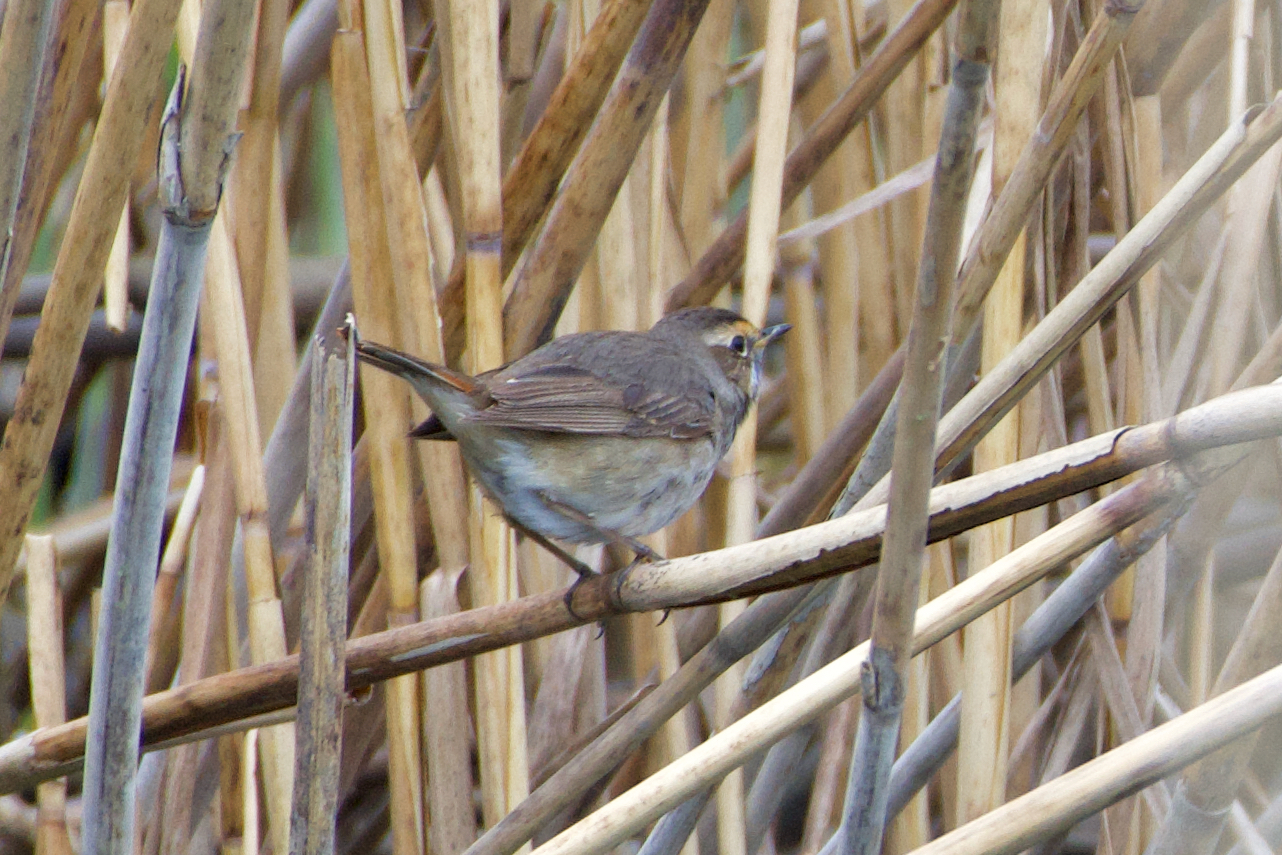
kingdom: Animalia
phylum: Chordata
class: Aves
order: Passeriformes
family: Muscicapidae
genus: Luscinia
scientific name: Luscinia svecica
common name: Bluethroat
